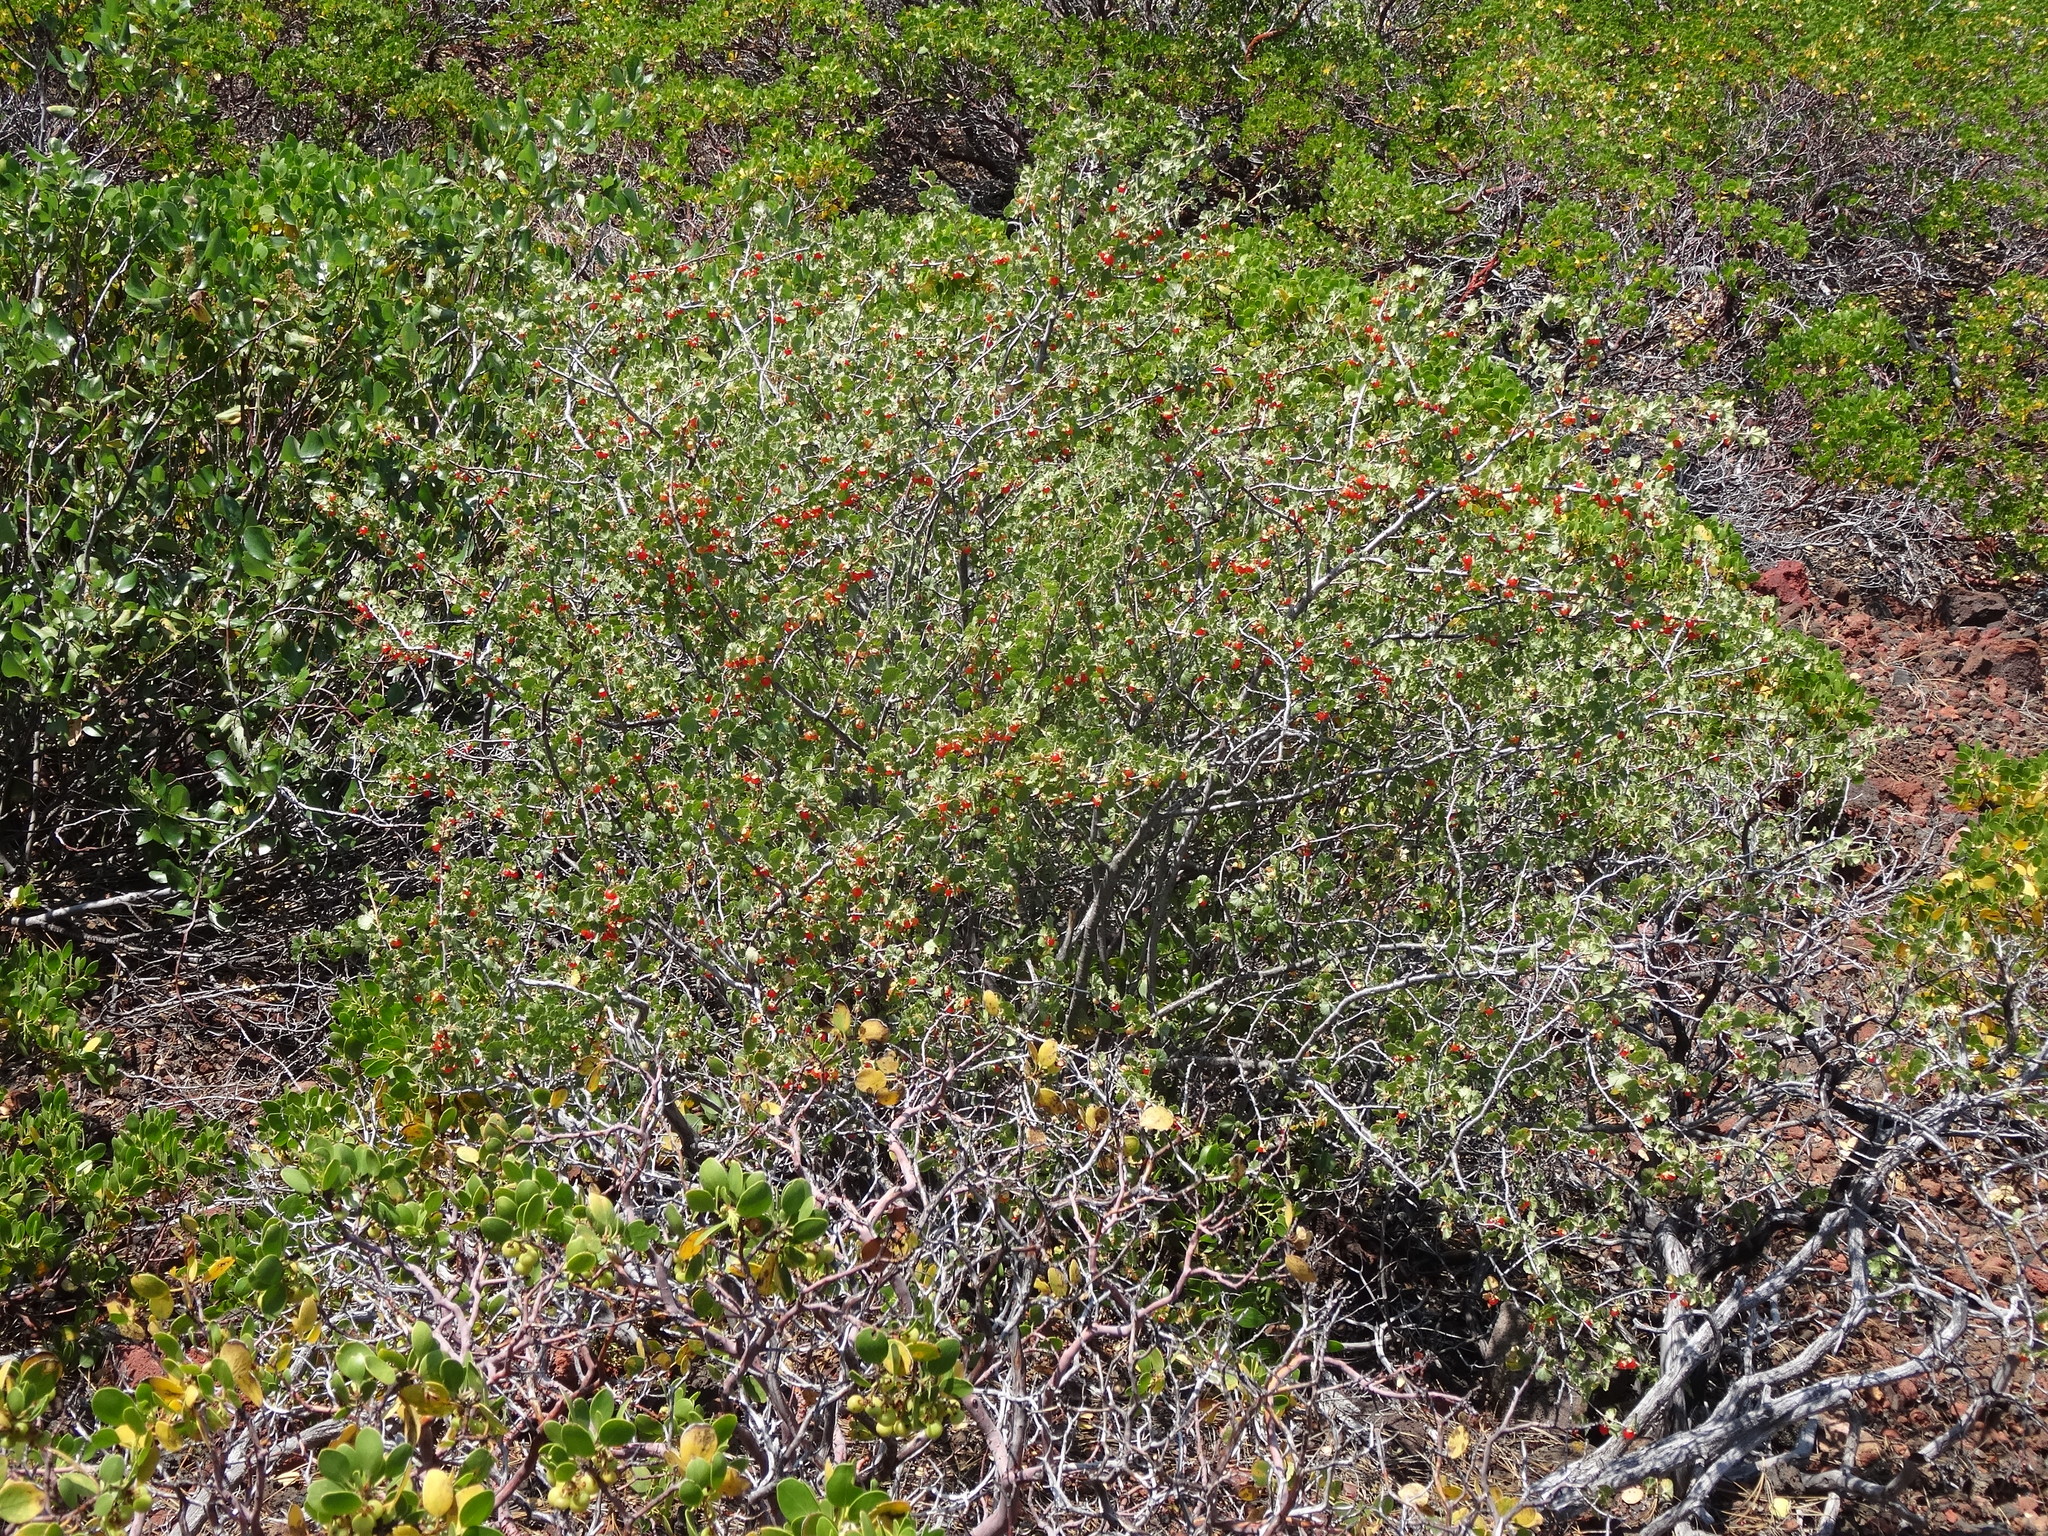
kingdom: Plantae
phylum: Tracheophyta
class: Magnoliopsida
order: Saxifragales
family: Grossulariaceae
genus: Ribes
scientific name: Ribes cereum
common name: Wax currant
